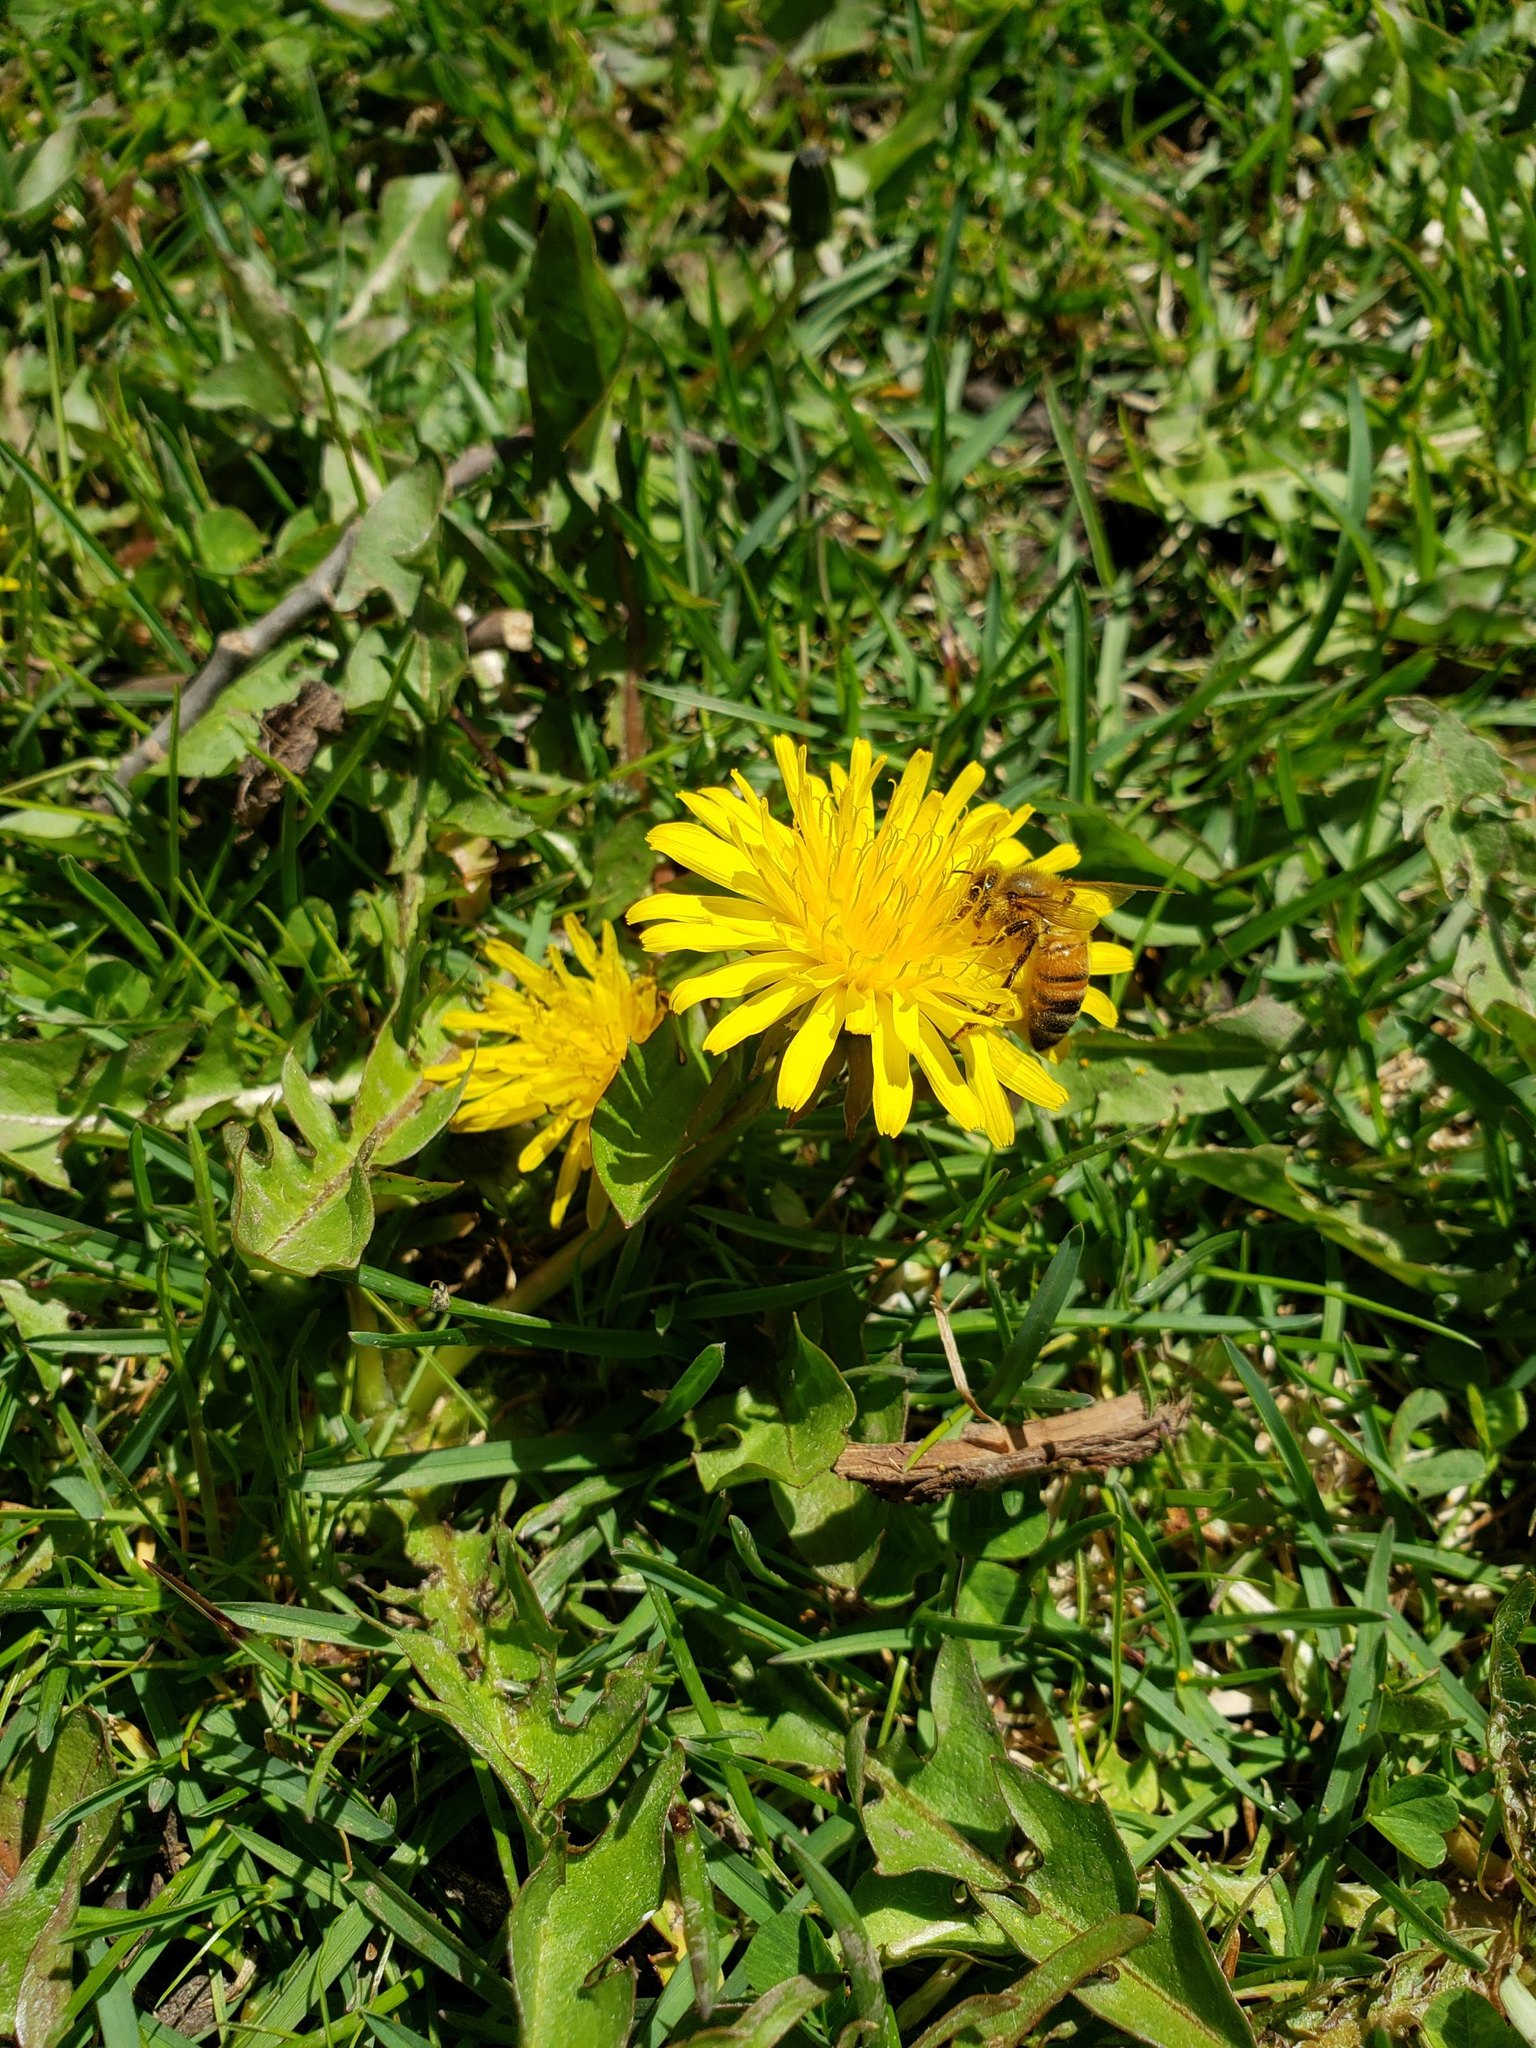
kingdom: Animalia
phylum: Arthropoda
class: Insecta
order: Hymenoptera
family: Apidae
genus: Apis
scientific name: Apis mellifera
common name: Honey bee
